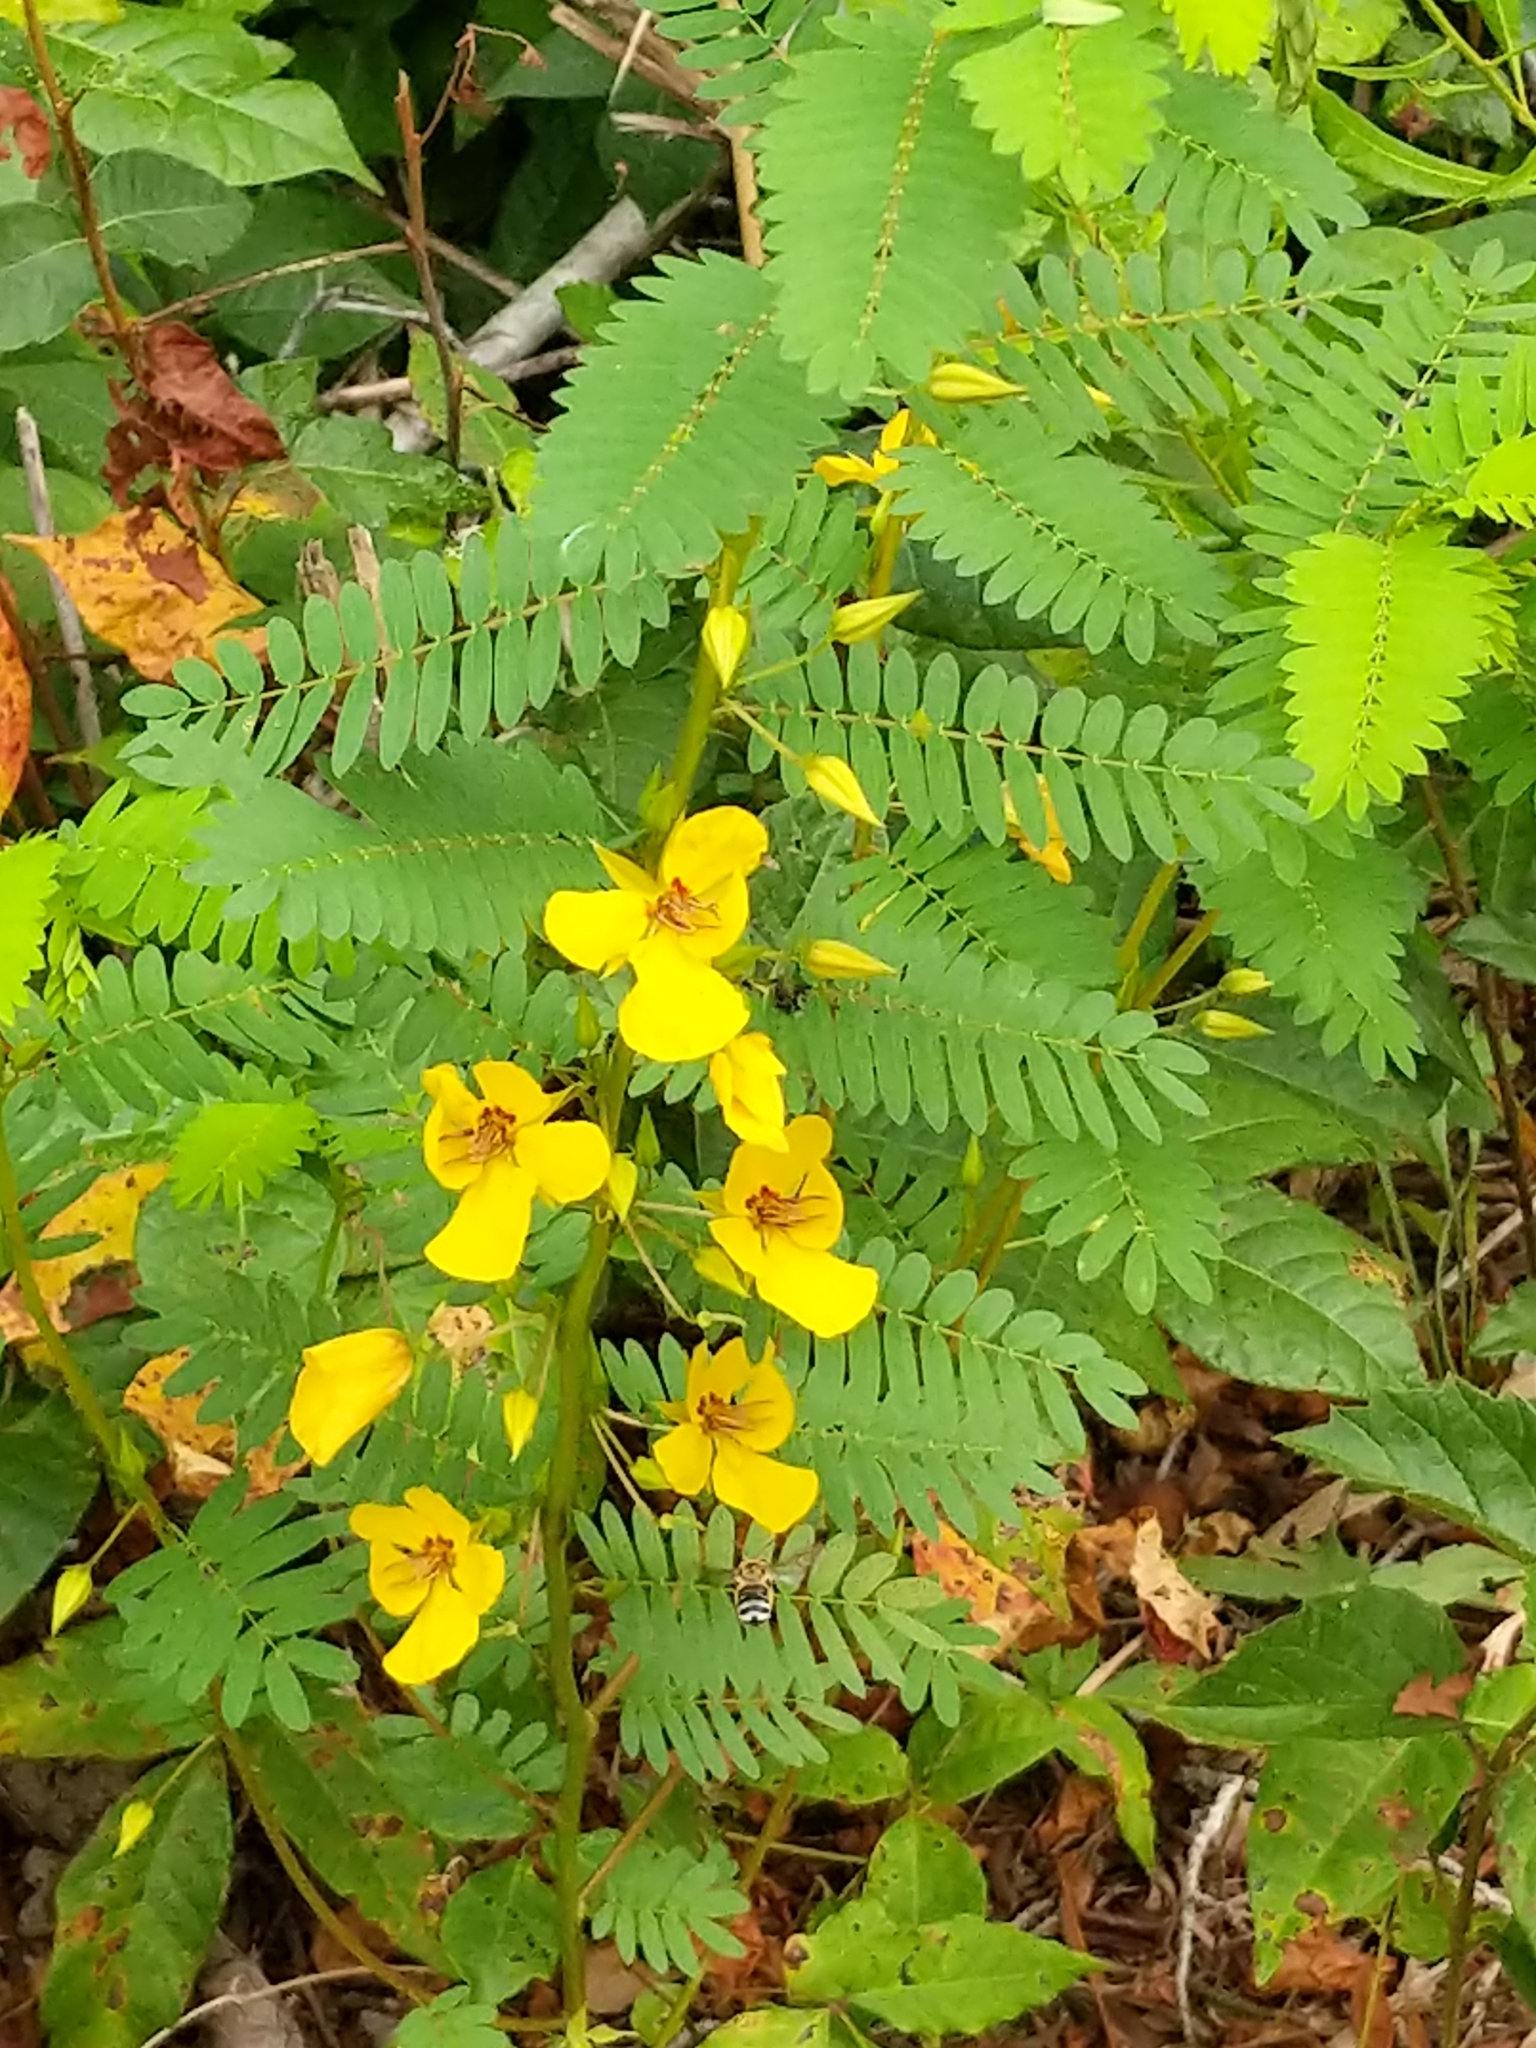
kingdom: Plantae
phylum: Tracheophyta
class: Magnoliopsida
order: Fabales
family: Fabaceae
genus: Chamaecrista
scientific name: Chamaecrista fasciculata
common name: Golden cassia
